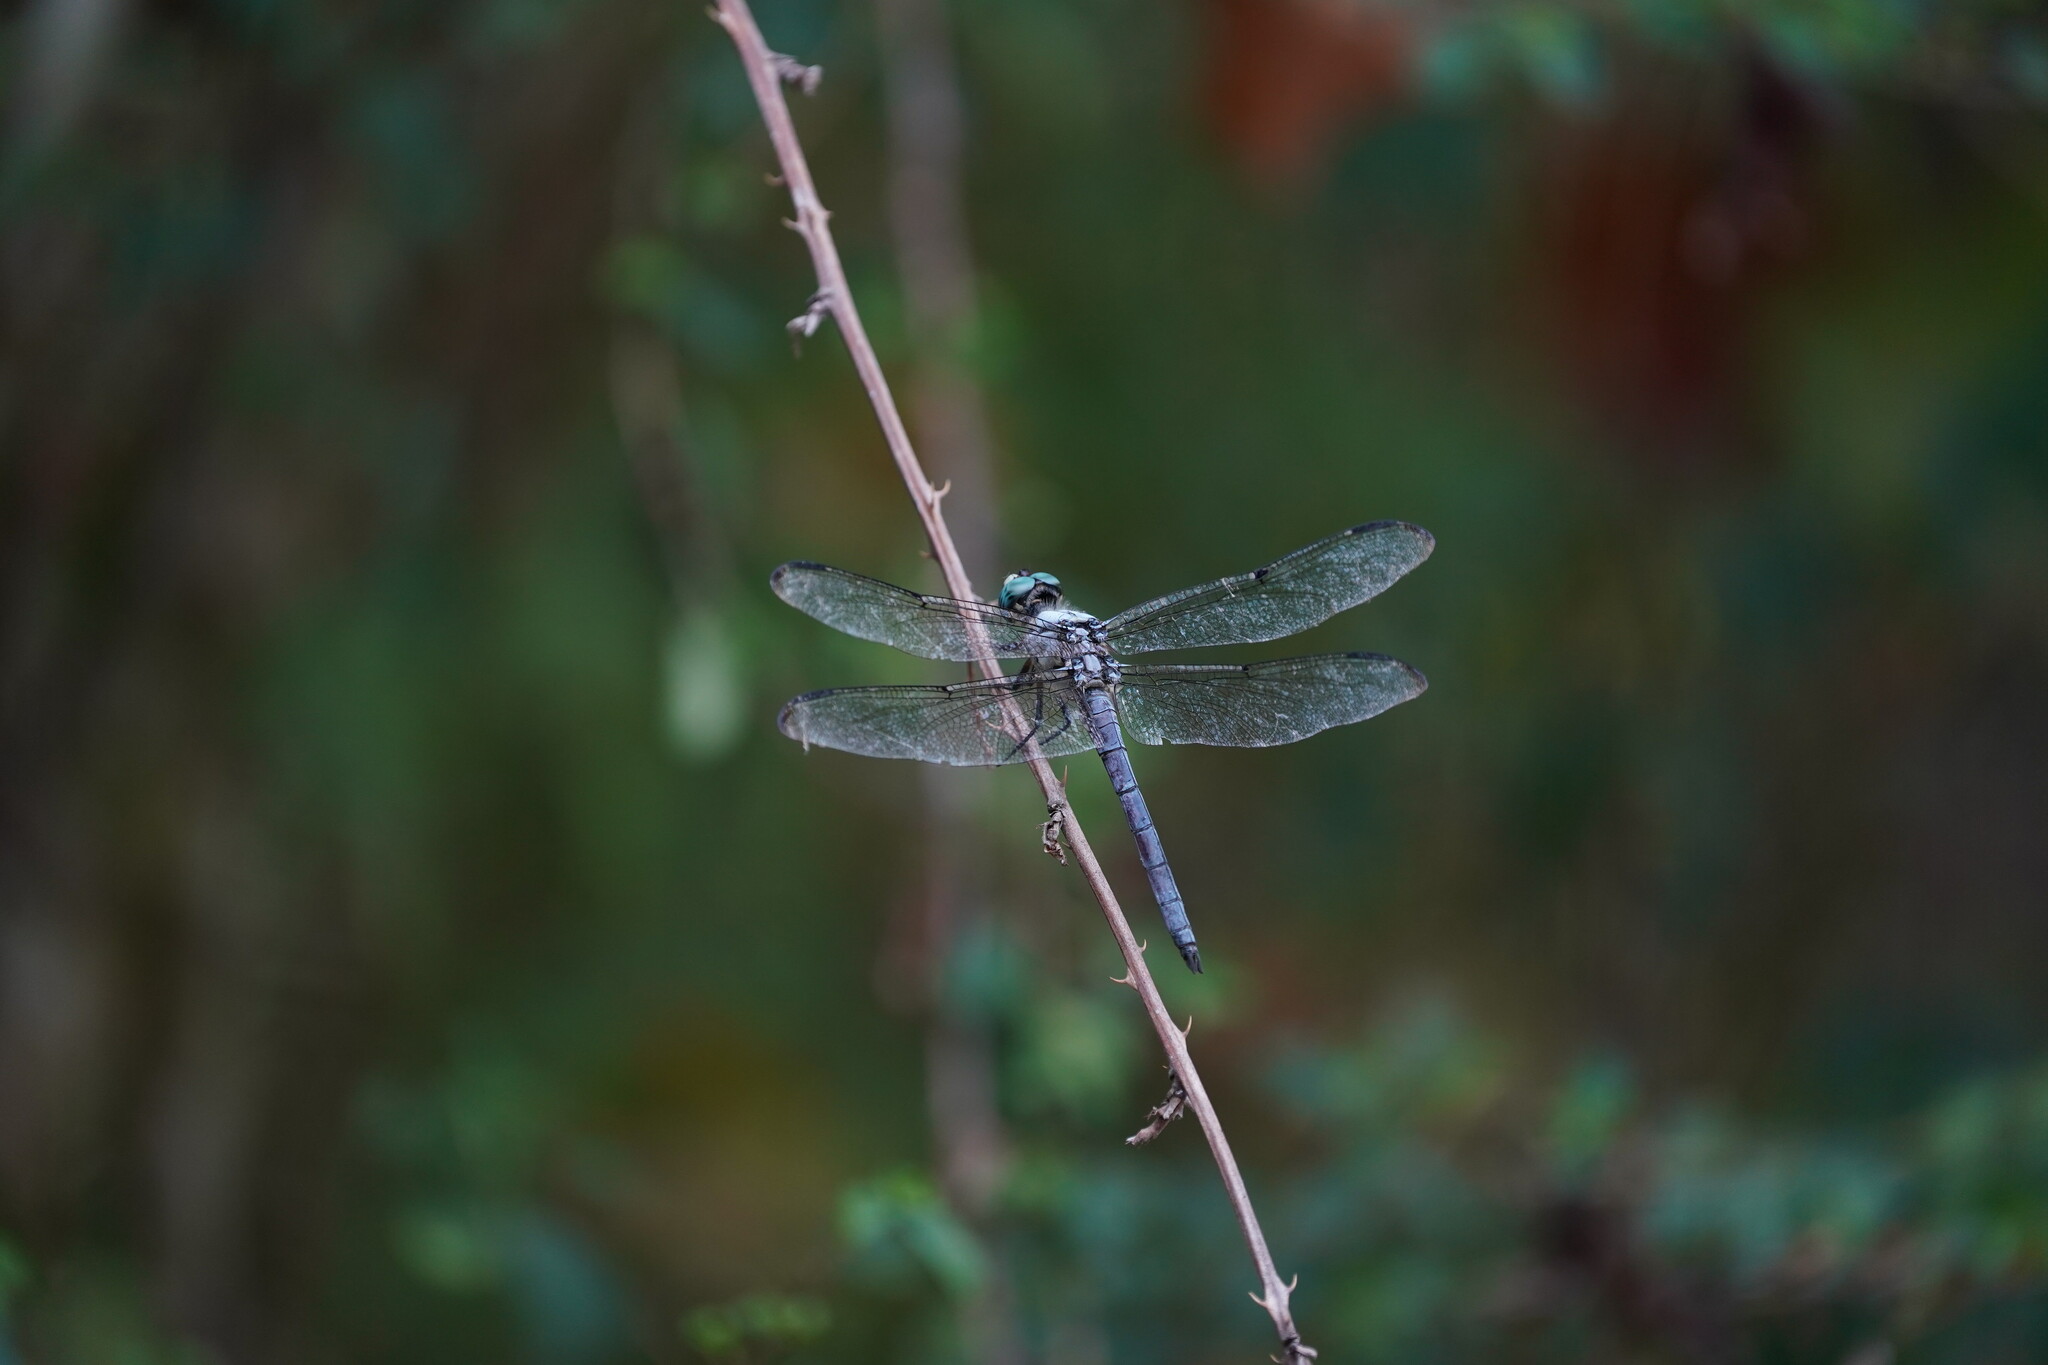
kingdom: Animalia
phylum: Arthropoda
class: Insecta
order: Odonata
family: Libellulidae
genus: Libellula
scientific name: Libellula vibrans
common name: Great blue skimmer
